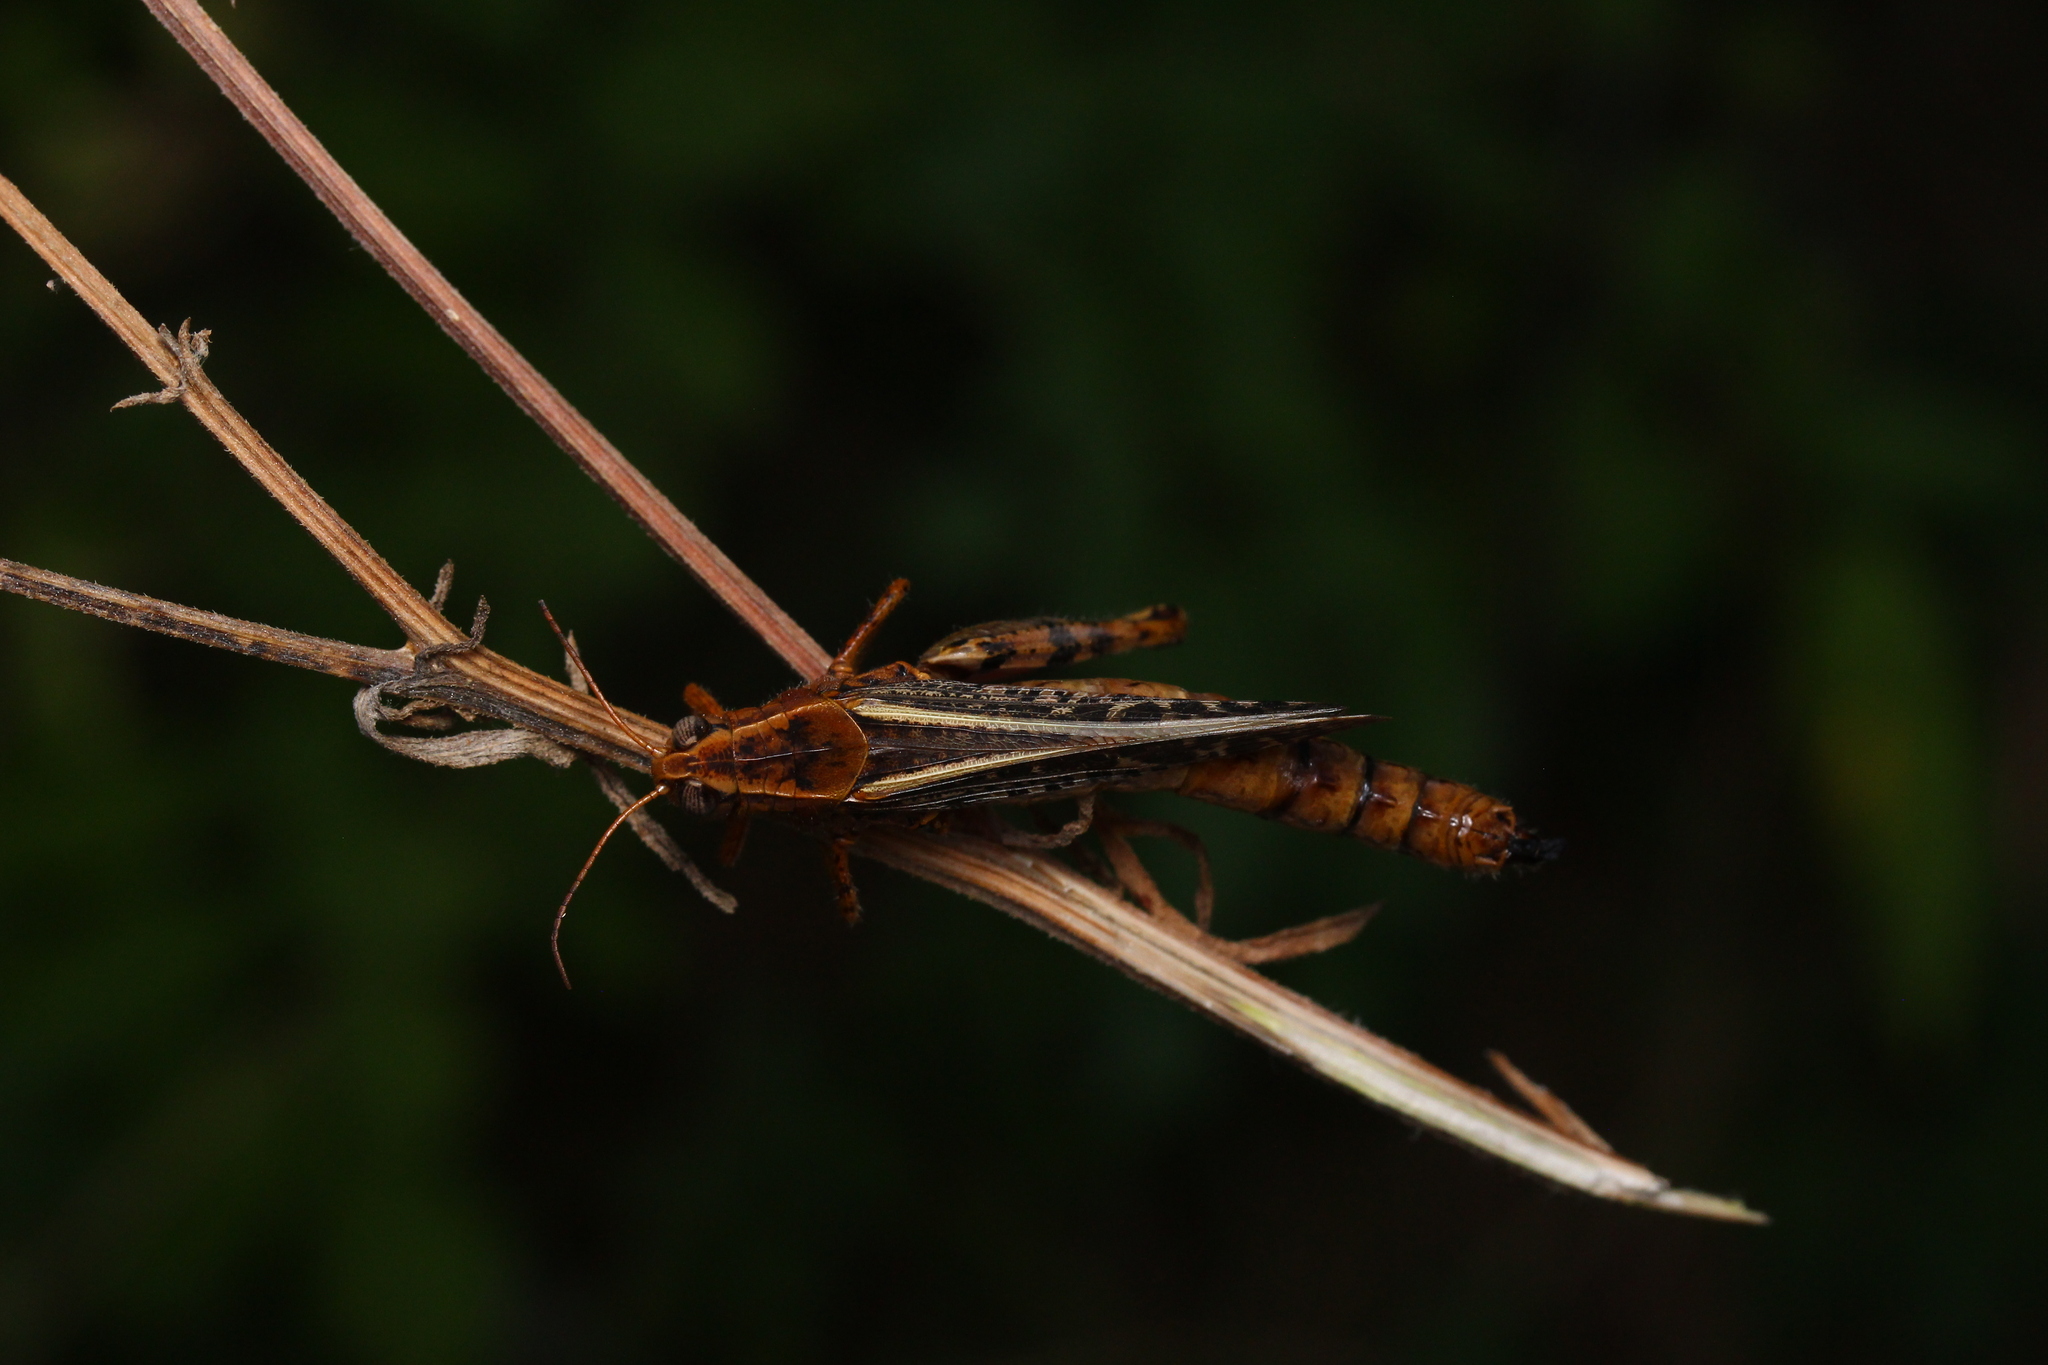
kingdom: Animalia
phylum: Arthropoda
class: Insecta
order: Orthoptera
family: Acrididae
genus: Calliptamus
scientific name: Calliptamus italicus
